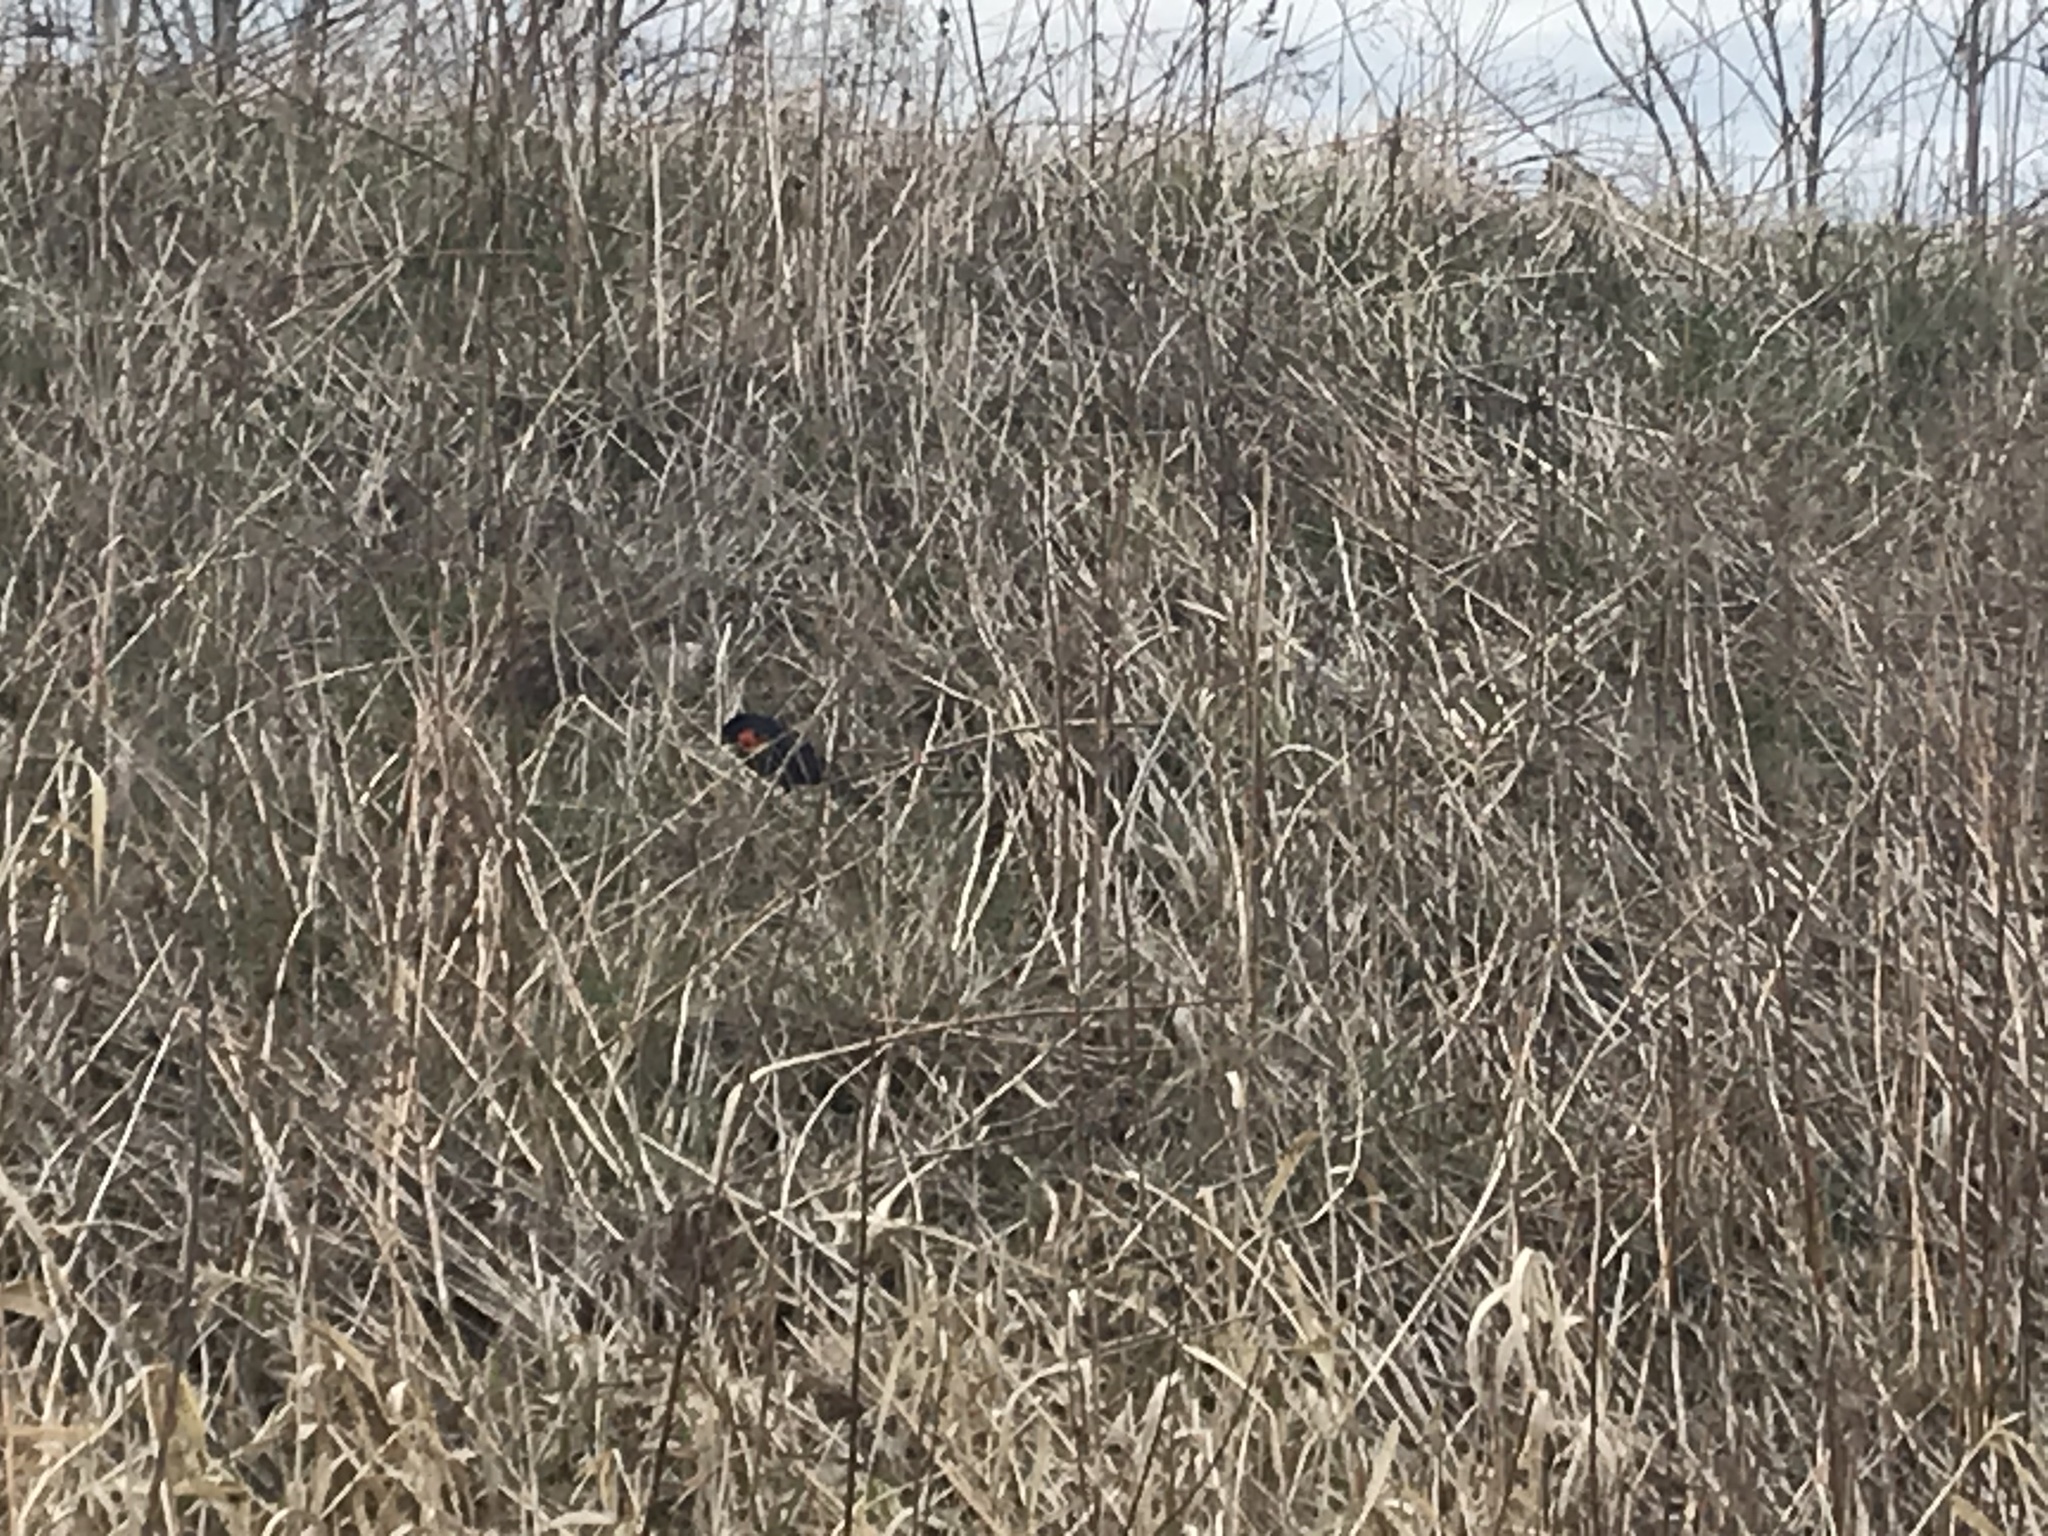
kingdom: Animalia
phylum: Chordata
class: Aves
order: Passeriformes
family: Icteridae
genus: Agelaius
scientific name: Agelaius phoeniceus
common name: Red-winged blackbird
